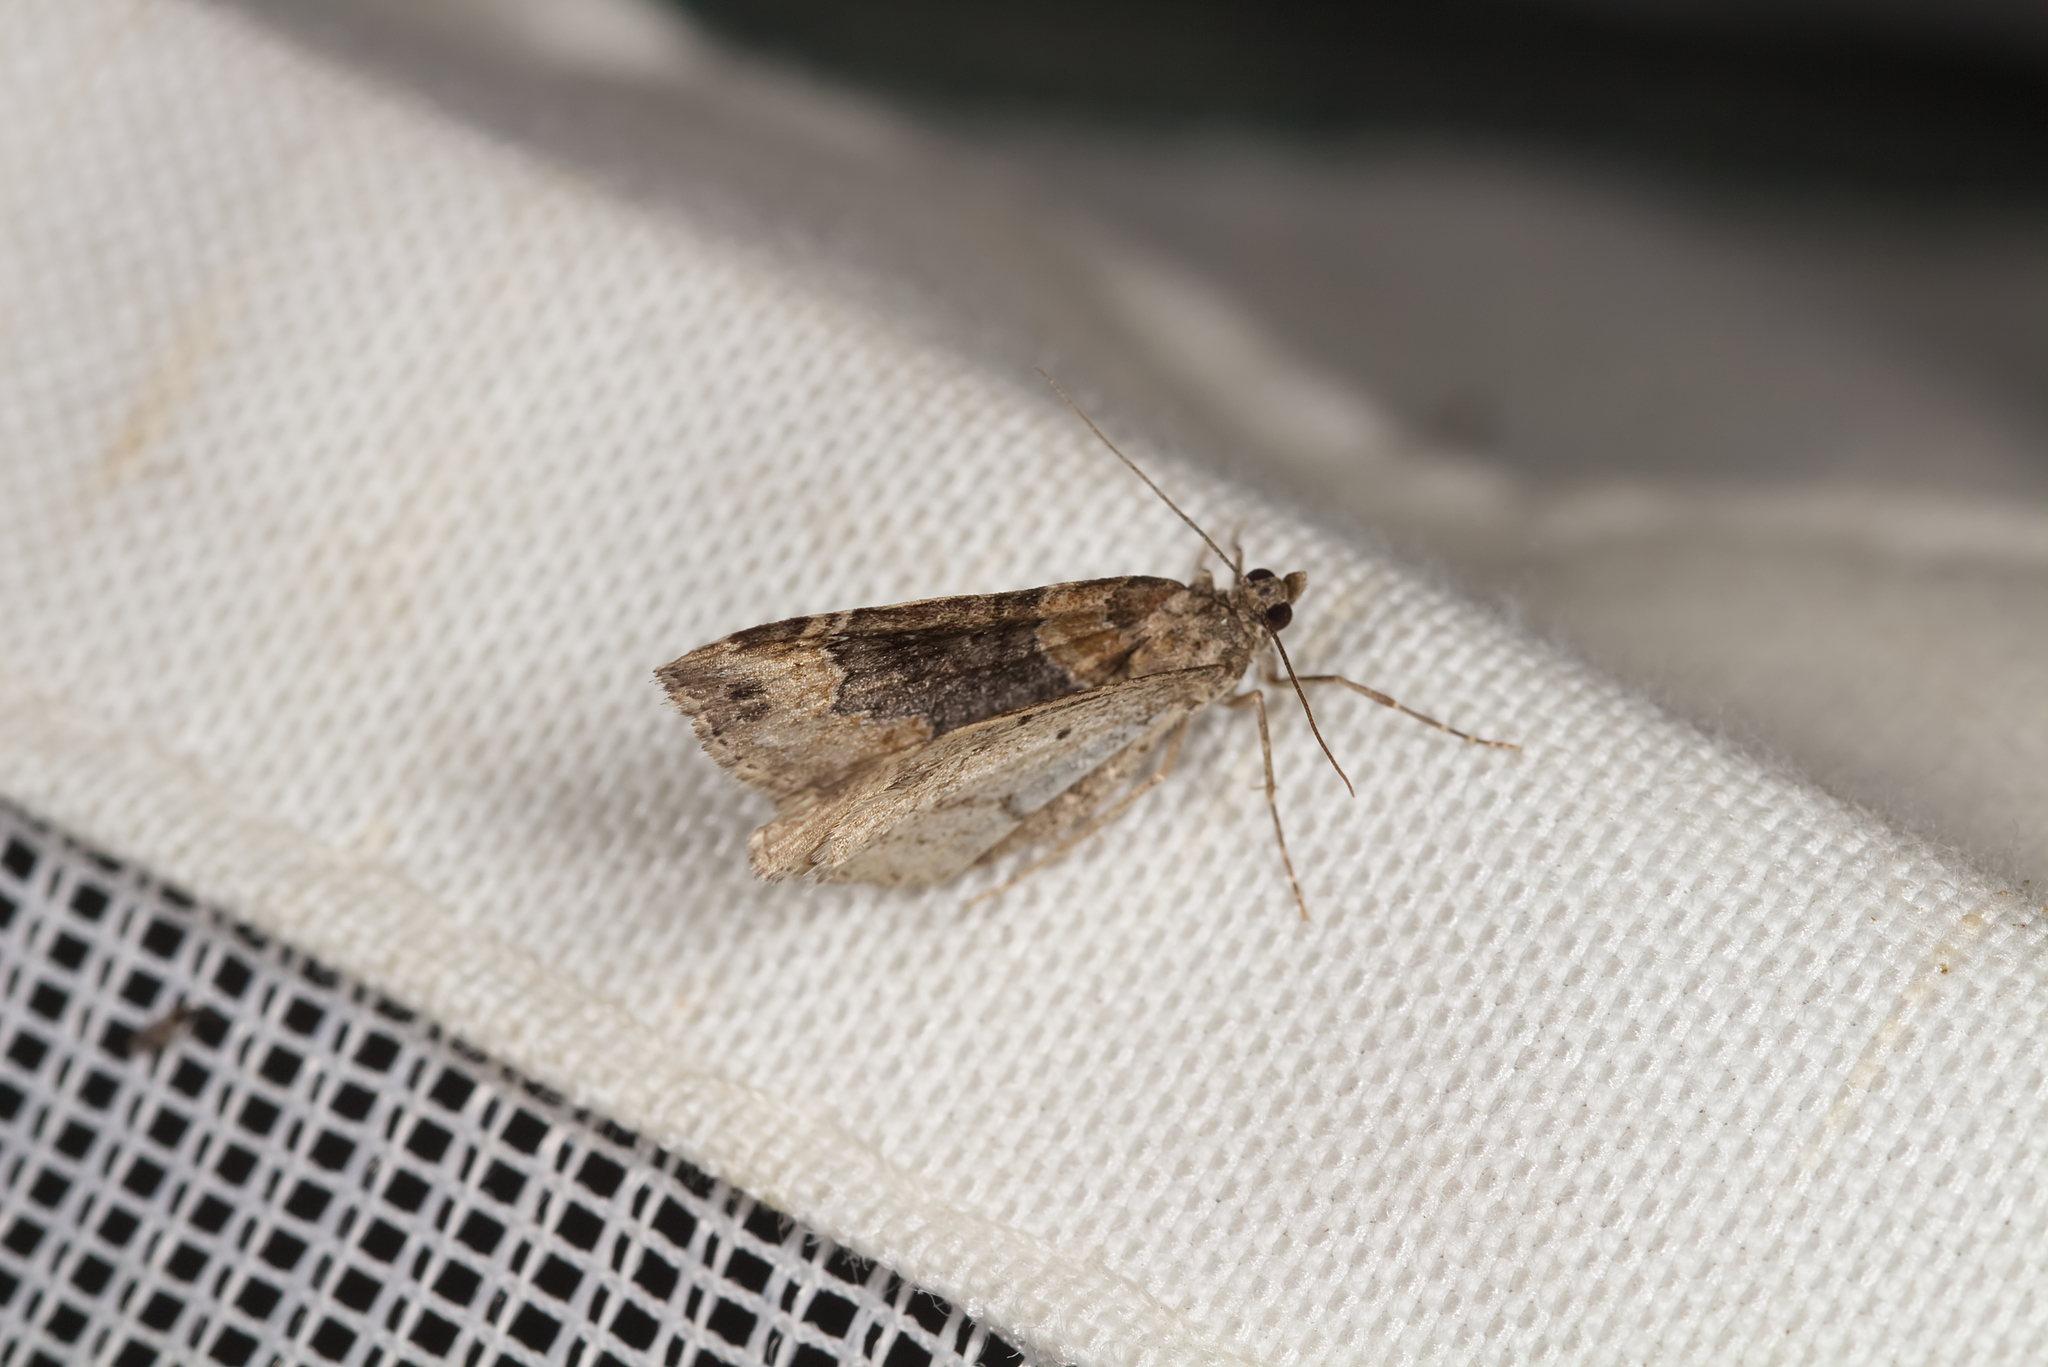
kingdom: Animalia
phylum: Arthropoda
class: Insecta
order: Lepidoptera
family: Geometridae
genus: Xanthorhoe
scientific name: Xanthorhoe ferrugata
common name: Dark-barred twin-spot carpet
